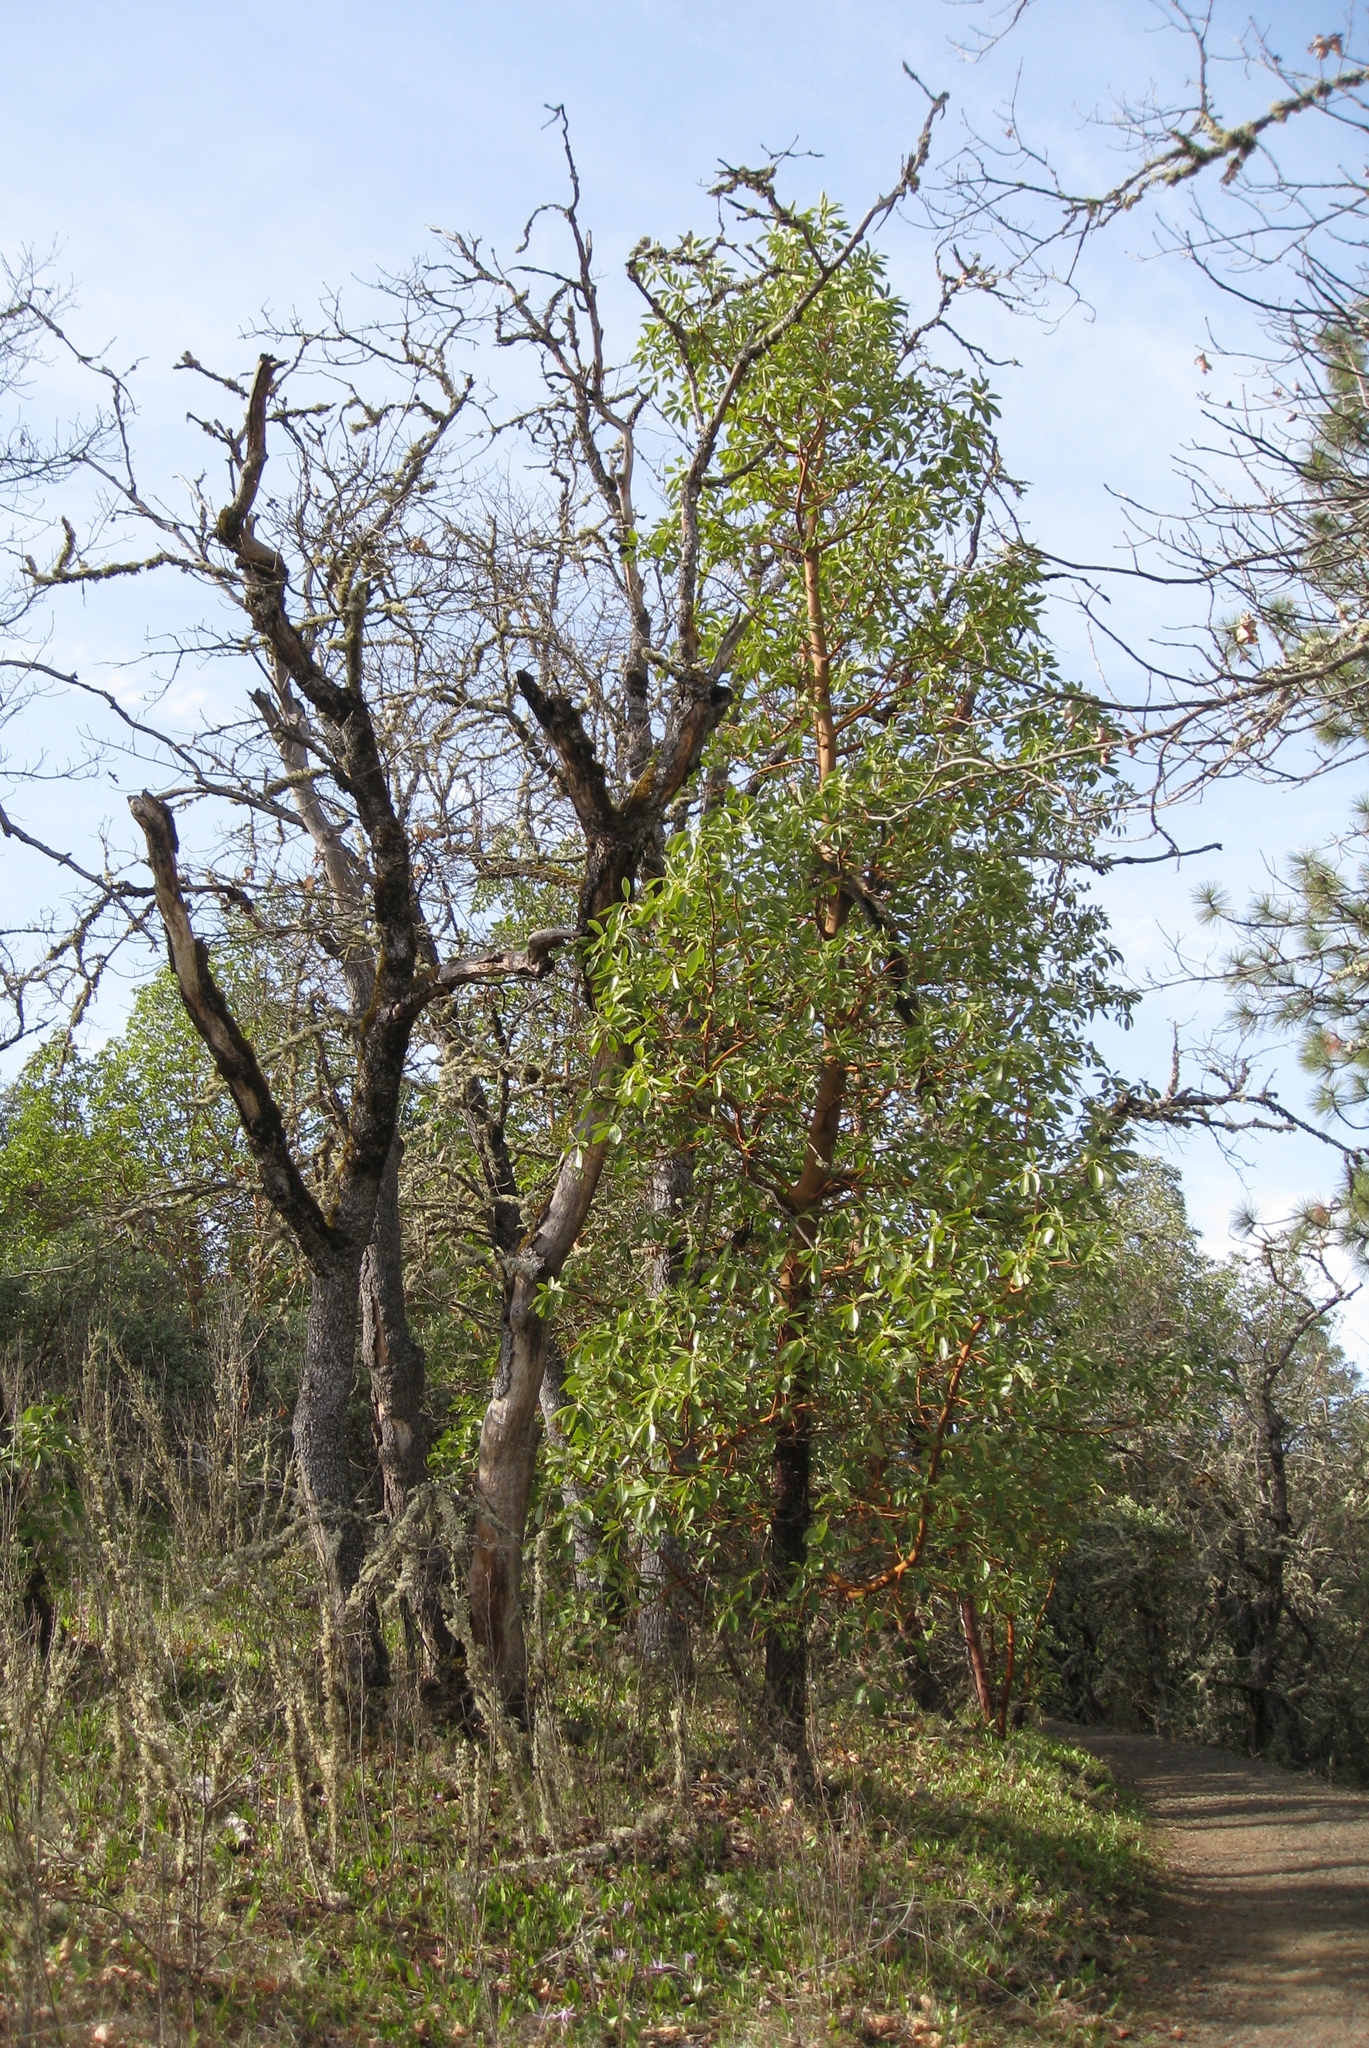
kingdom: Plantae
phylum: Tracheophyta
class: Magnoliopsida
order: Ericales
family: Ericaceae
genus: Arbutus
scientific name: Arbutus menziesii
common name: Pacific madrone
